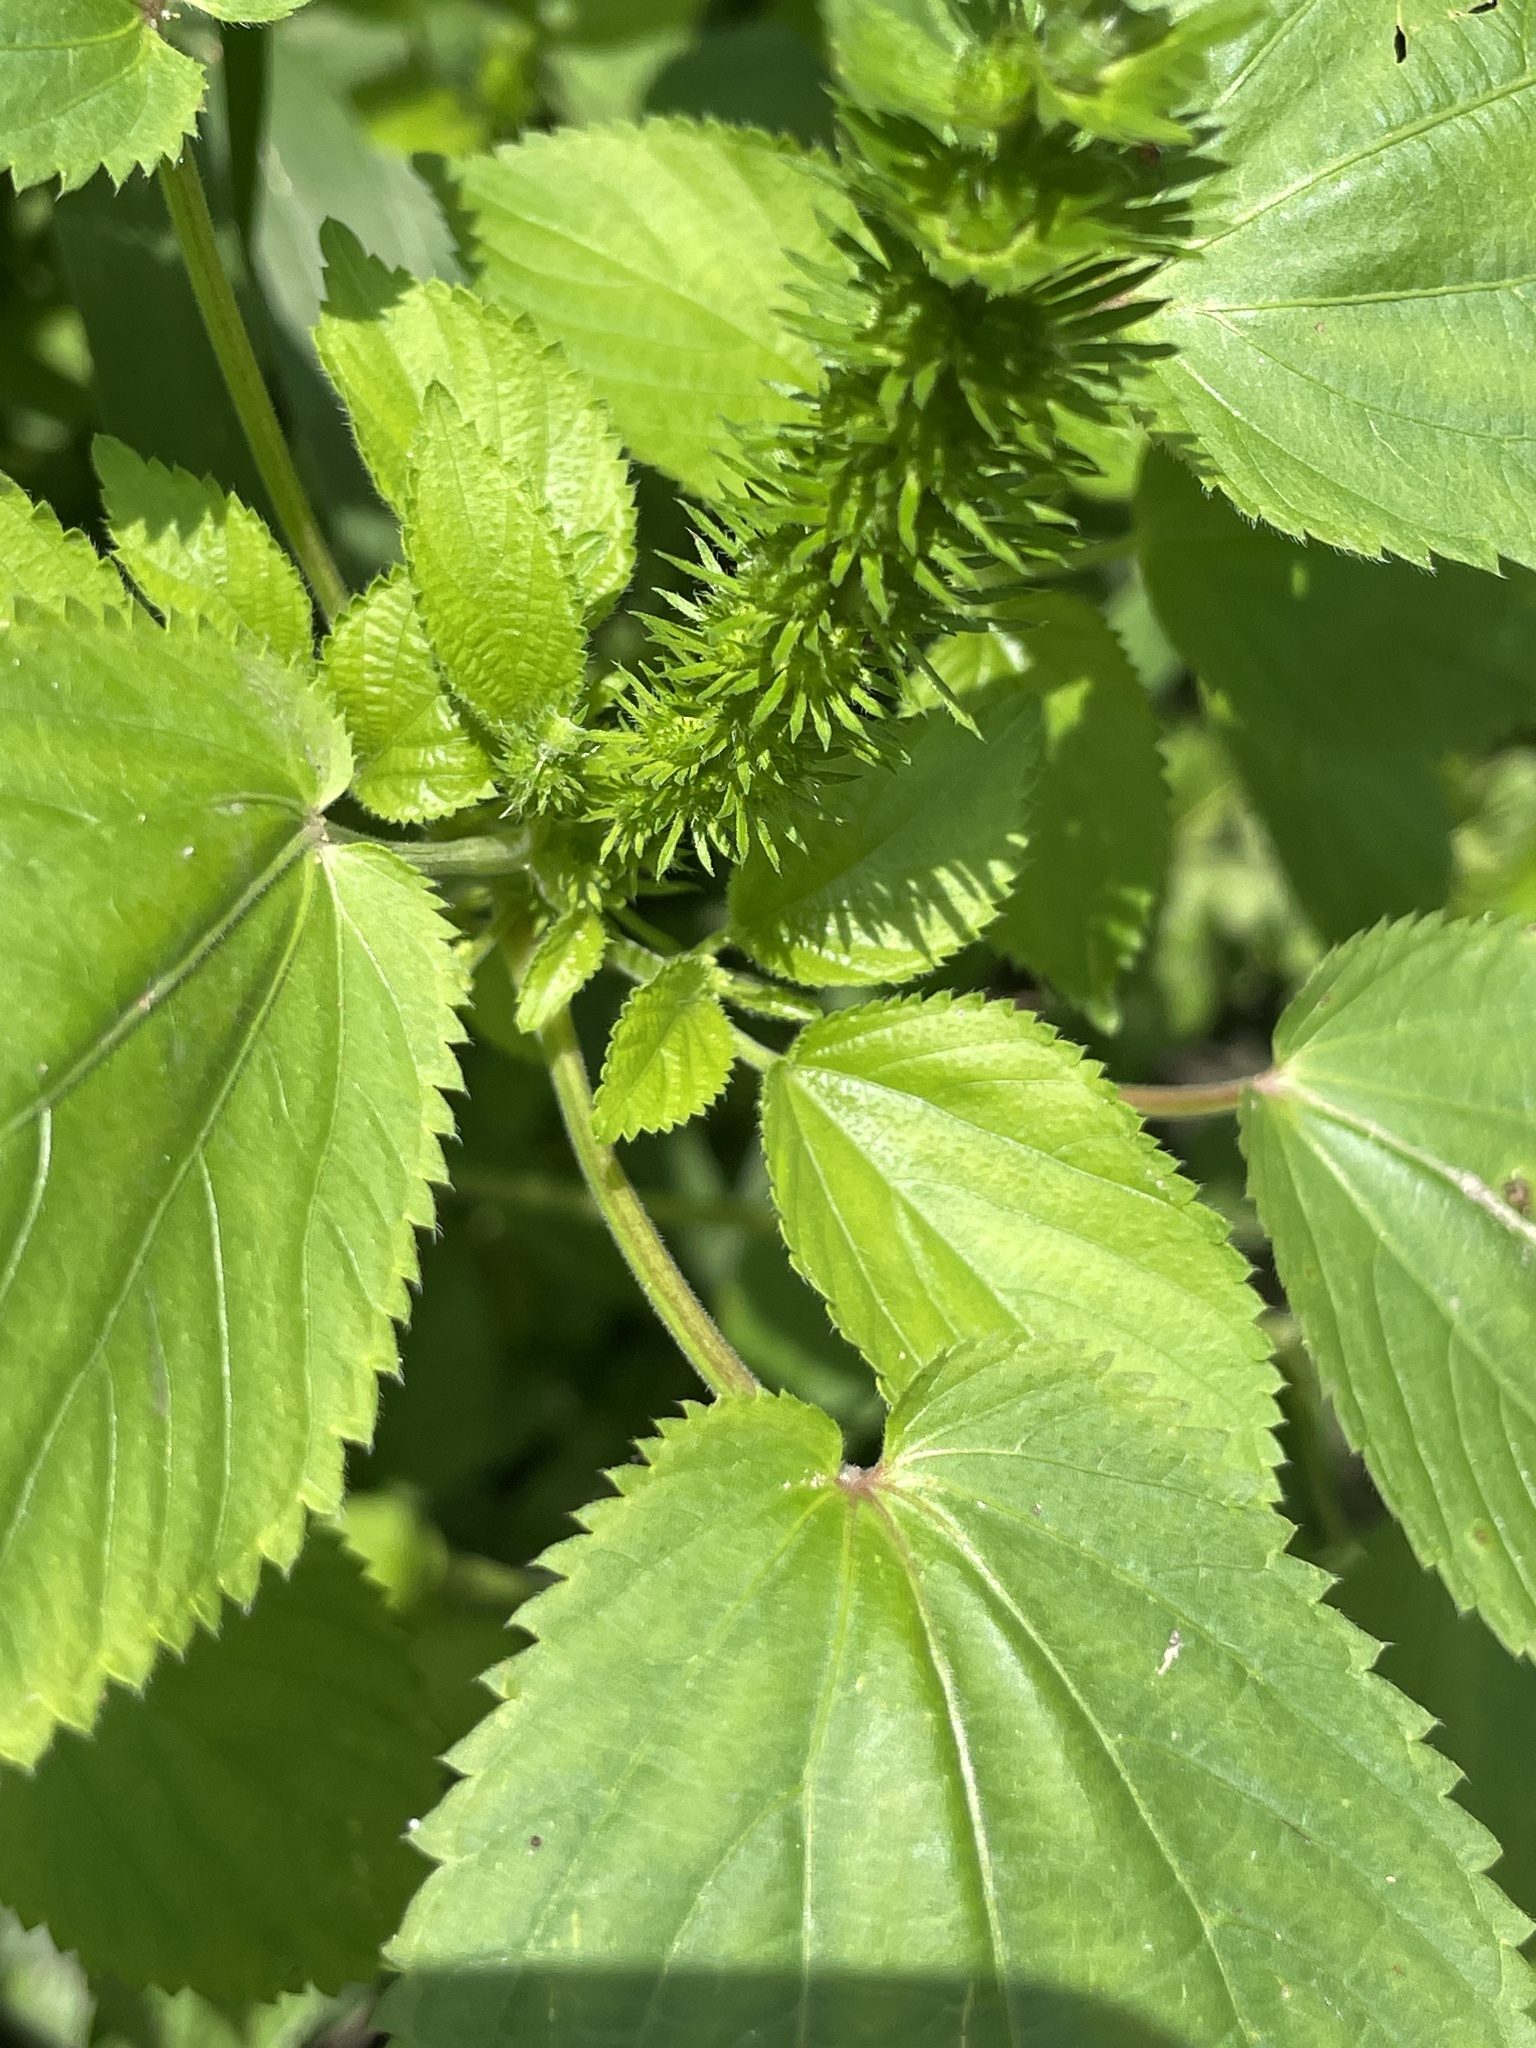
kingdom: Plantae
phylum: Tracheophyta
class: Magnoliopsida
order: Malpighiales
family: Euphorbiaceae
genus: Acalypha
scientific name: Acalypha ostryifolia
